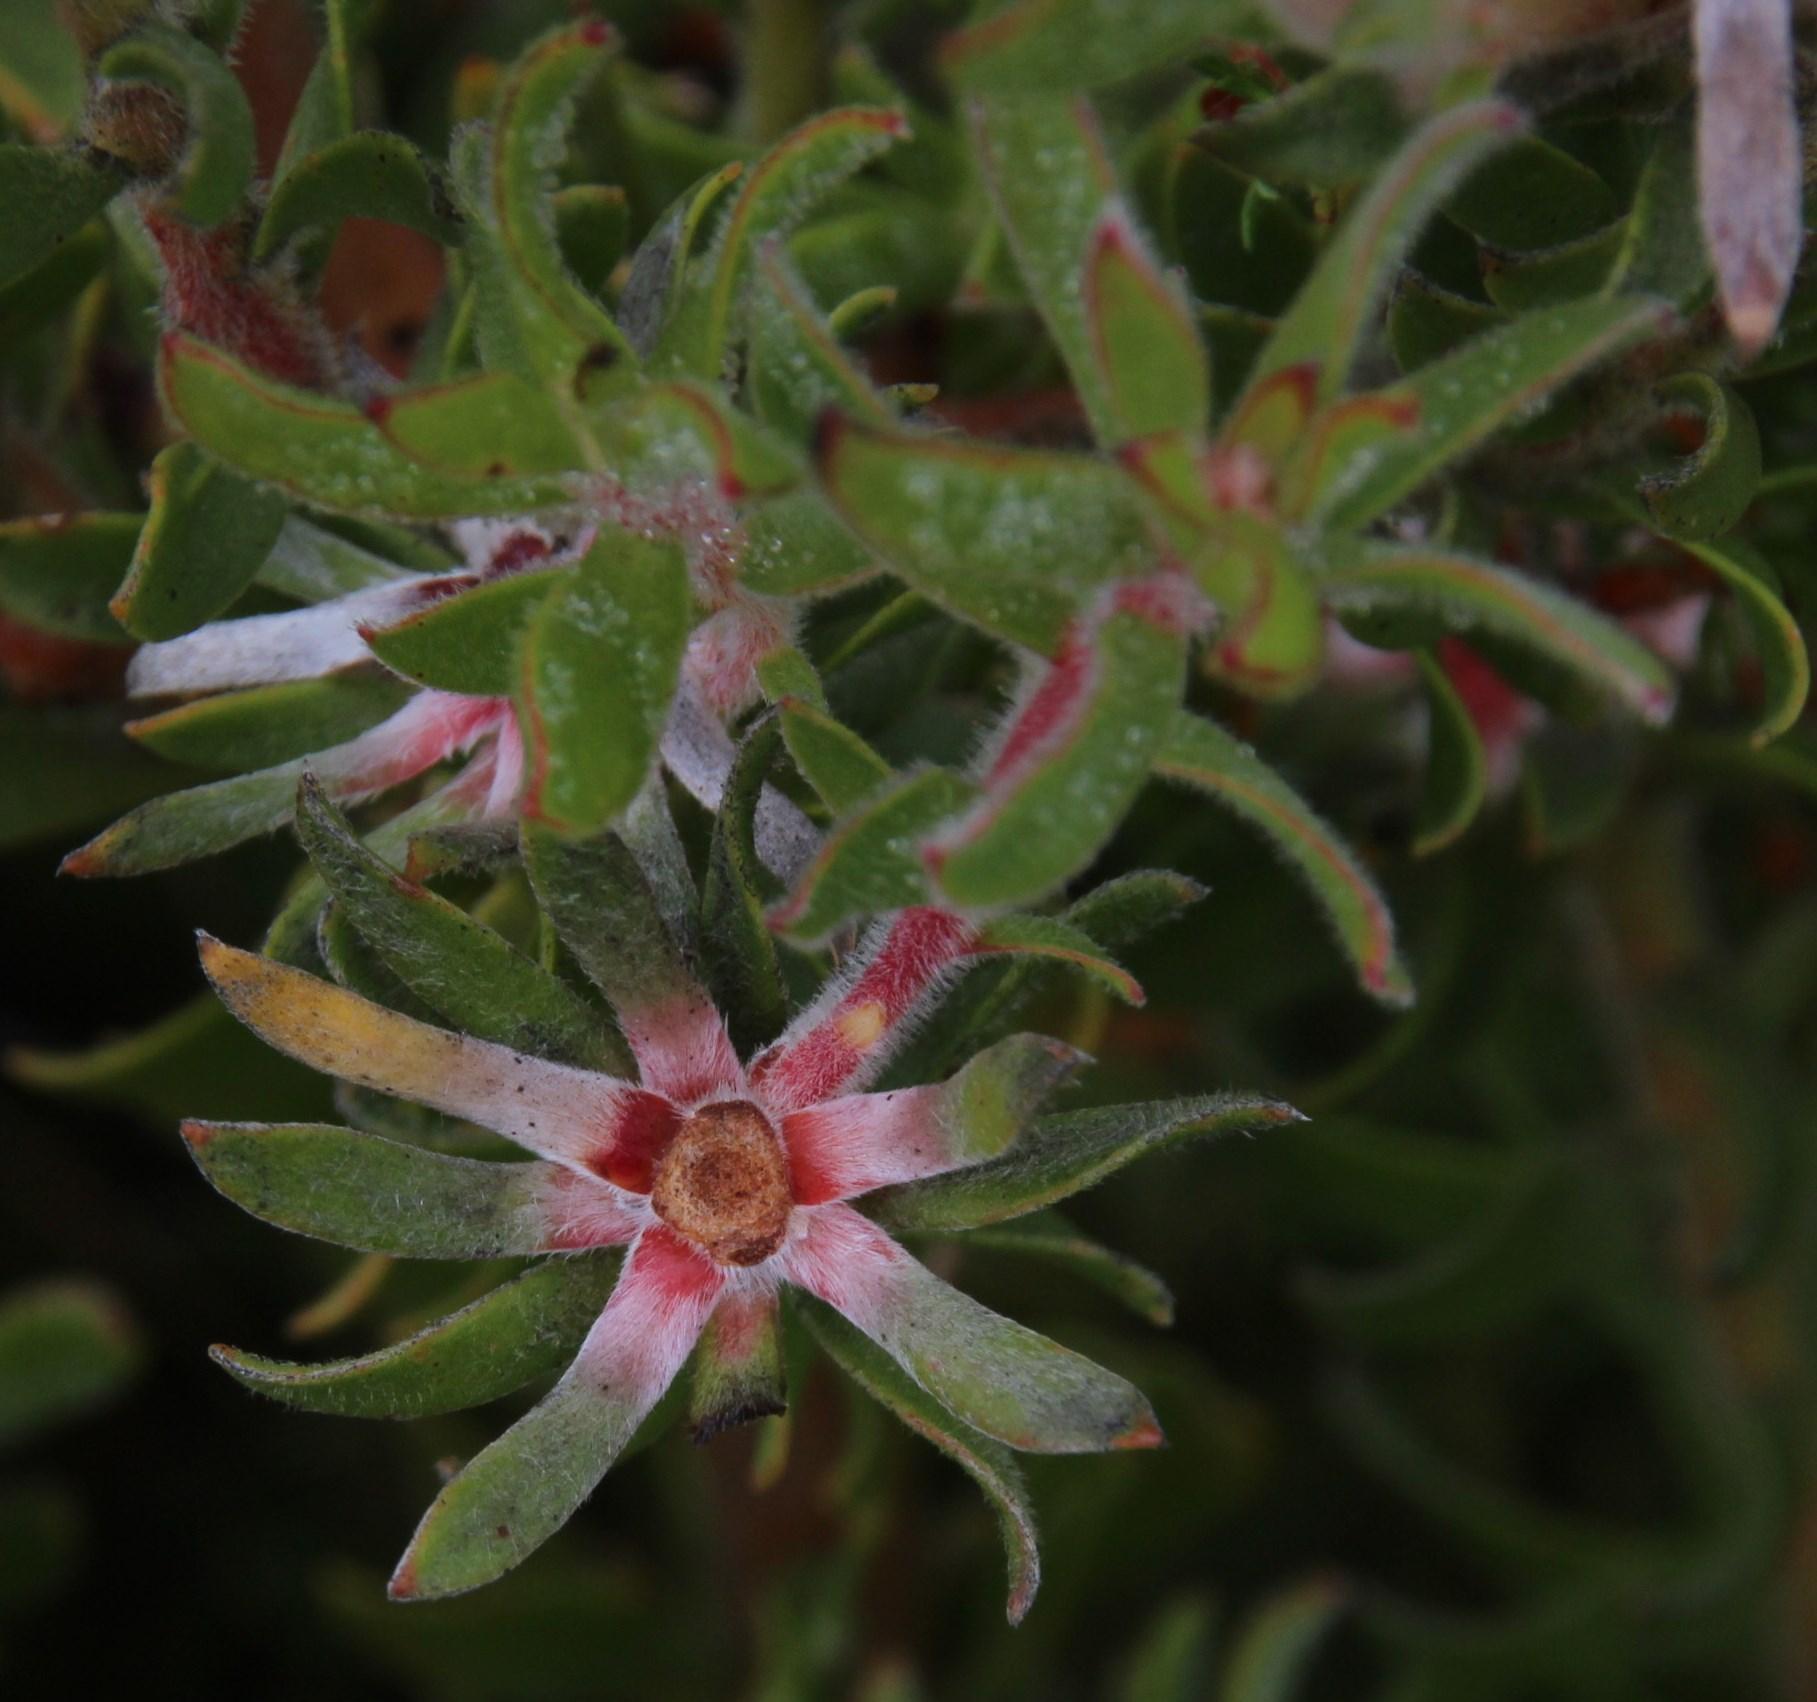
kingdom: Plantae
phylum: Tracheophyta
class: Magnoliopsida
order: Proteales
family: Proteaceae
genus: Leucadendron
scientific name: Leucadendron radiatum
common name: Langeberg conebush
